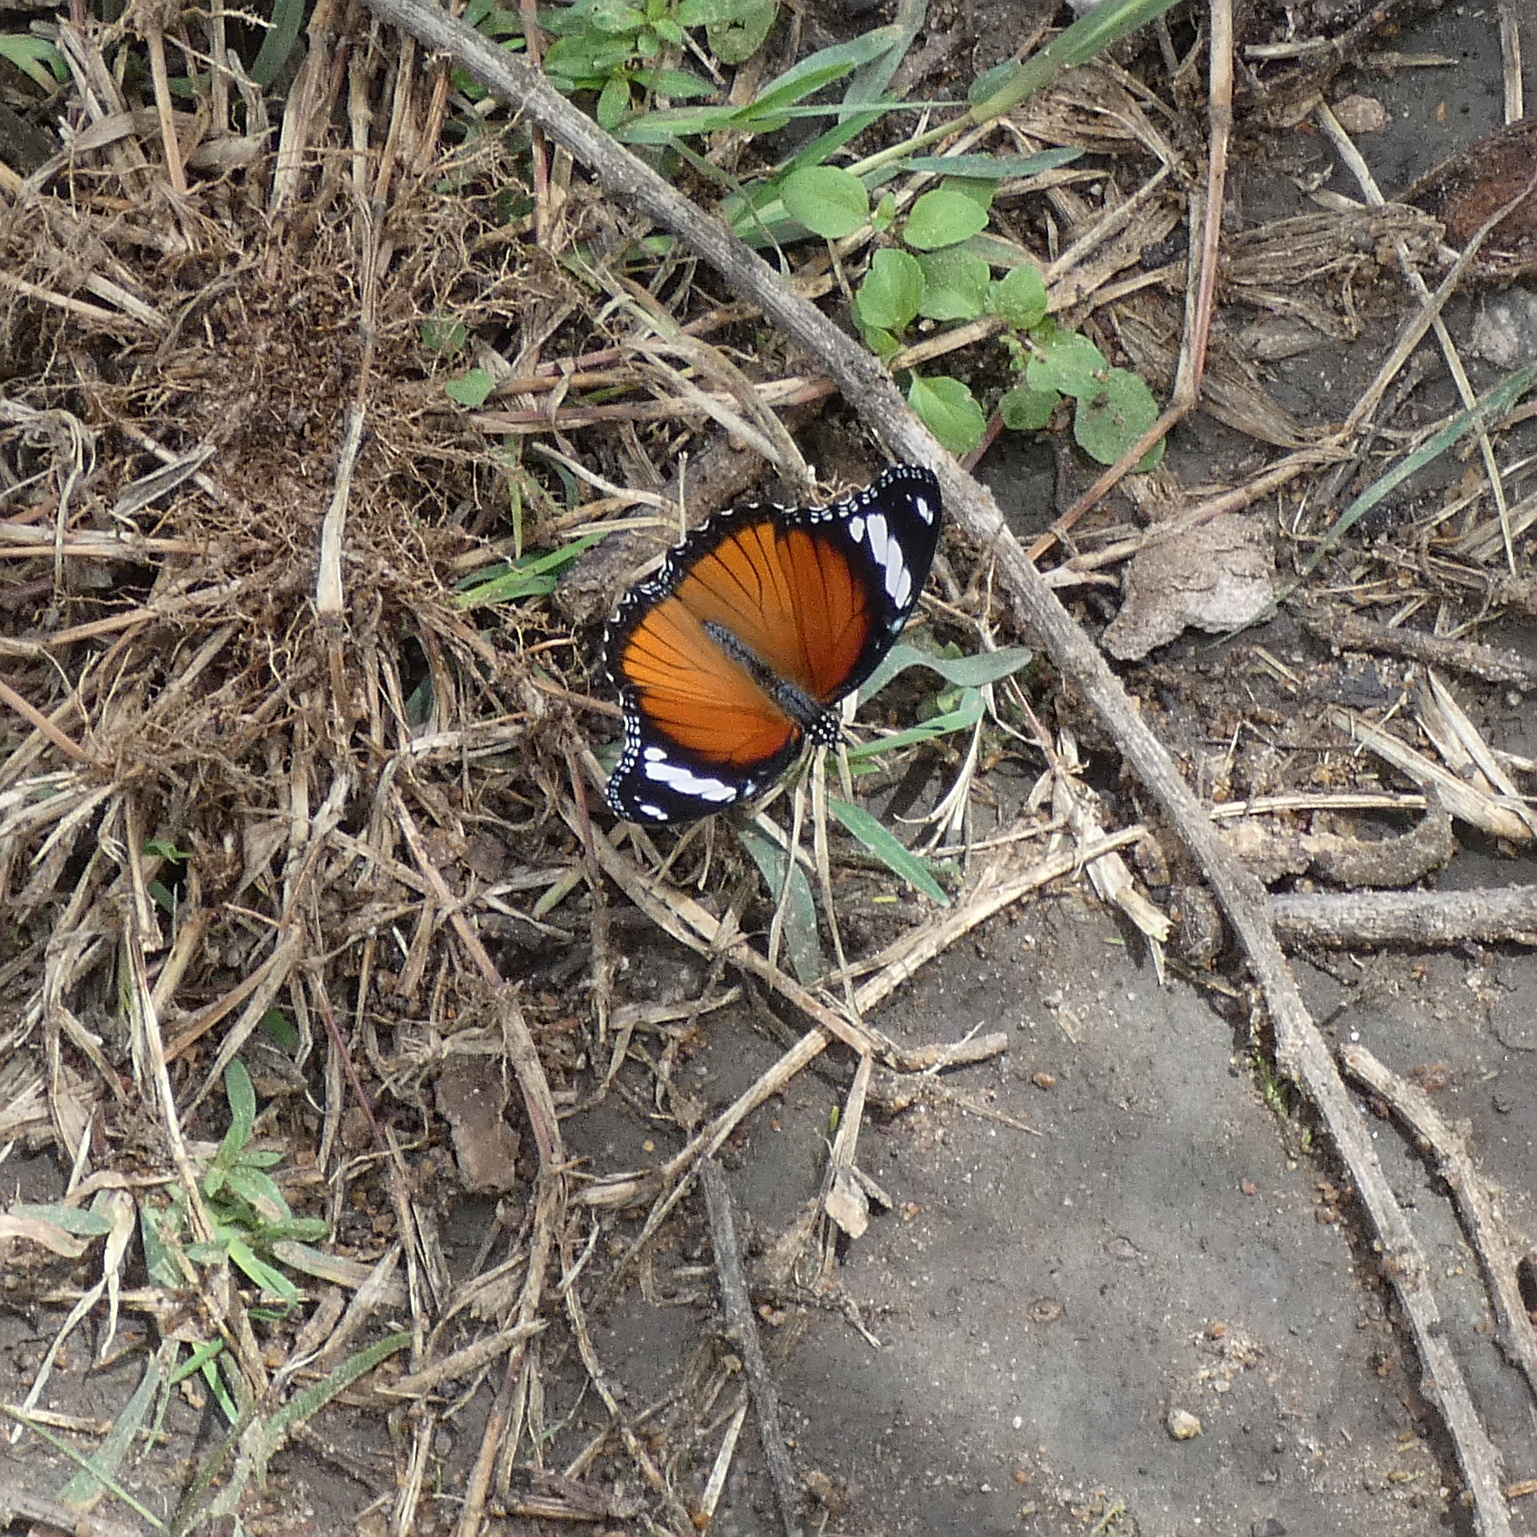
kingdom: Animalia
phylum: Arthropoda
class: Insecta
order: Lepidoptera
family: Nymphalidae
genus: Hypolimnas
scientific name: Hypolimnas misippus
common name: False plain tiger
